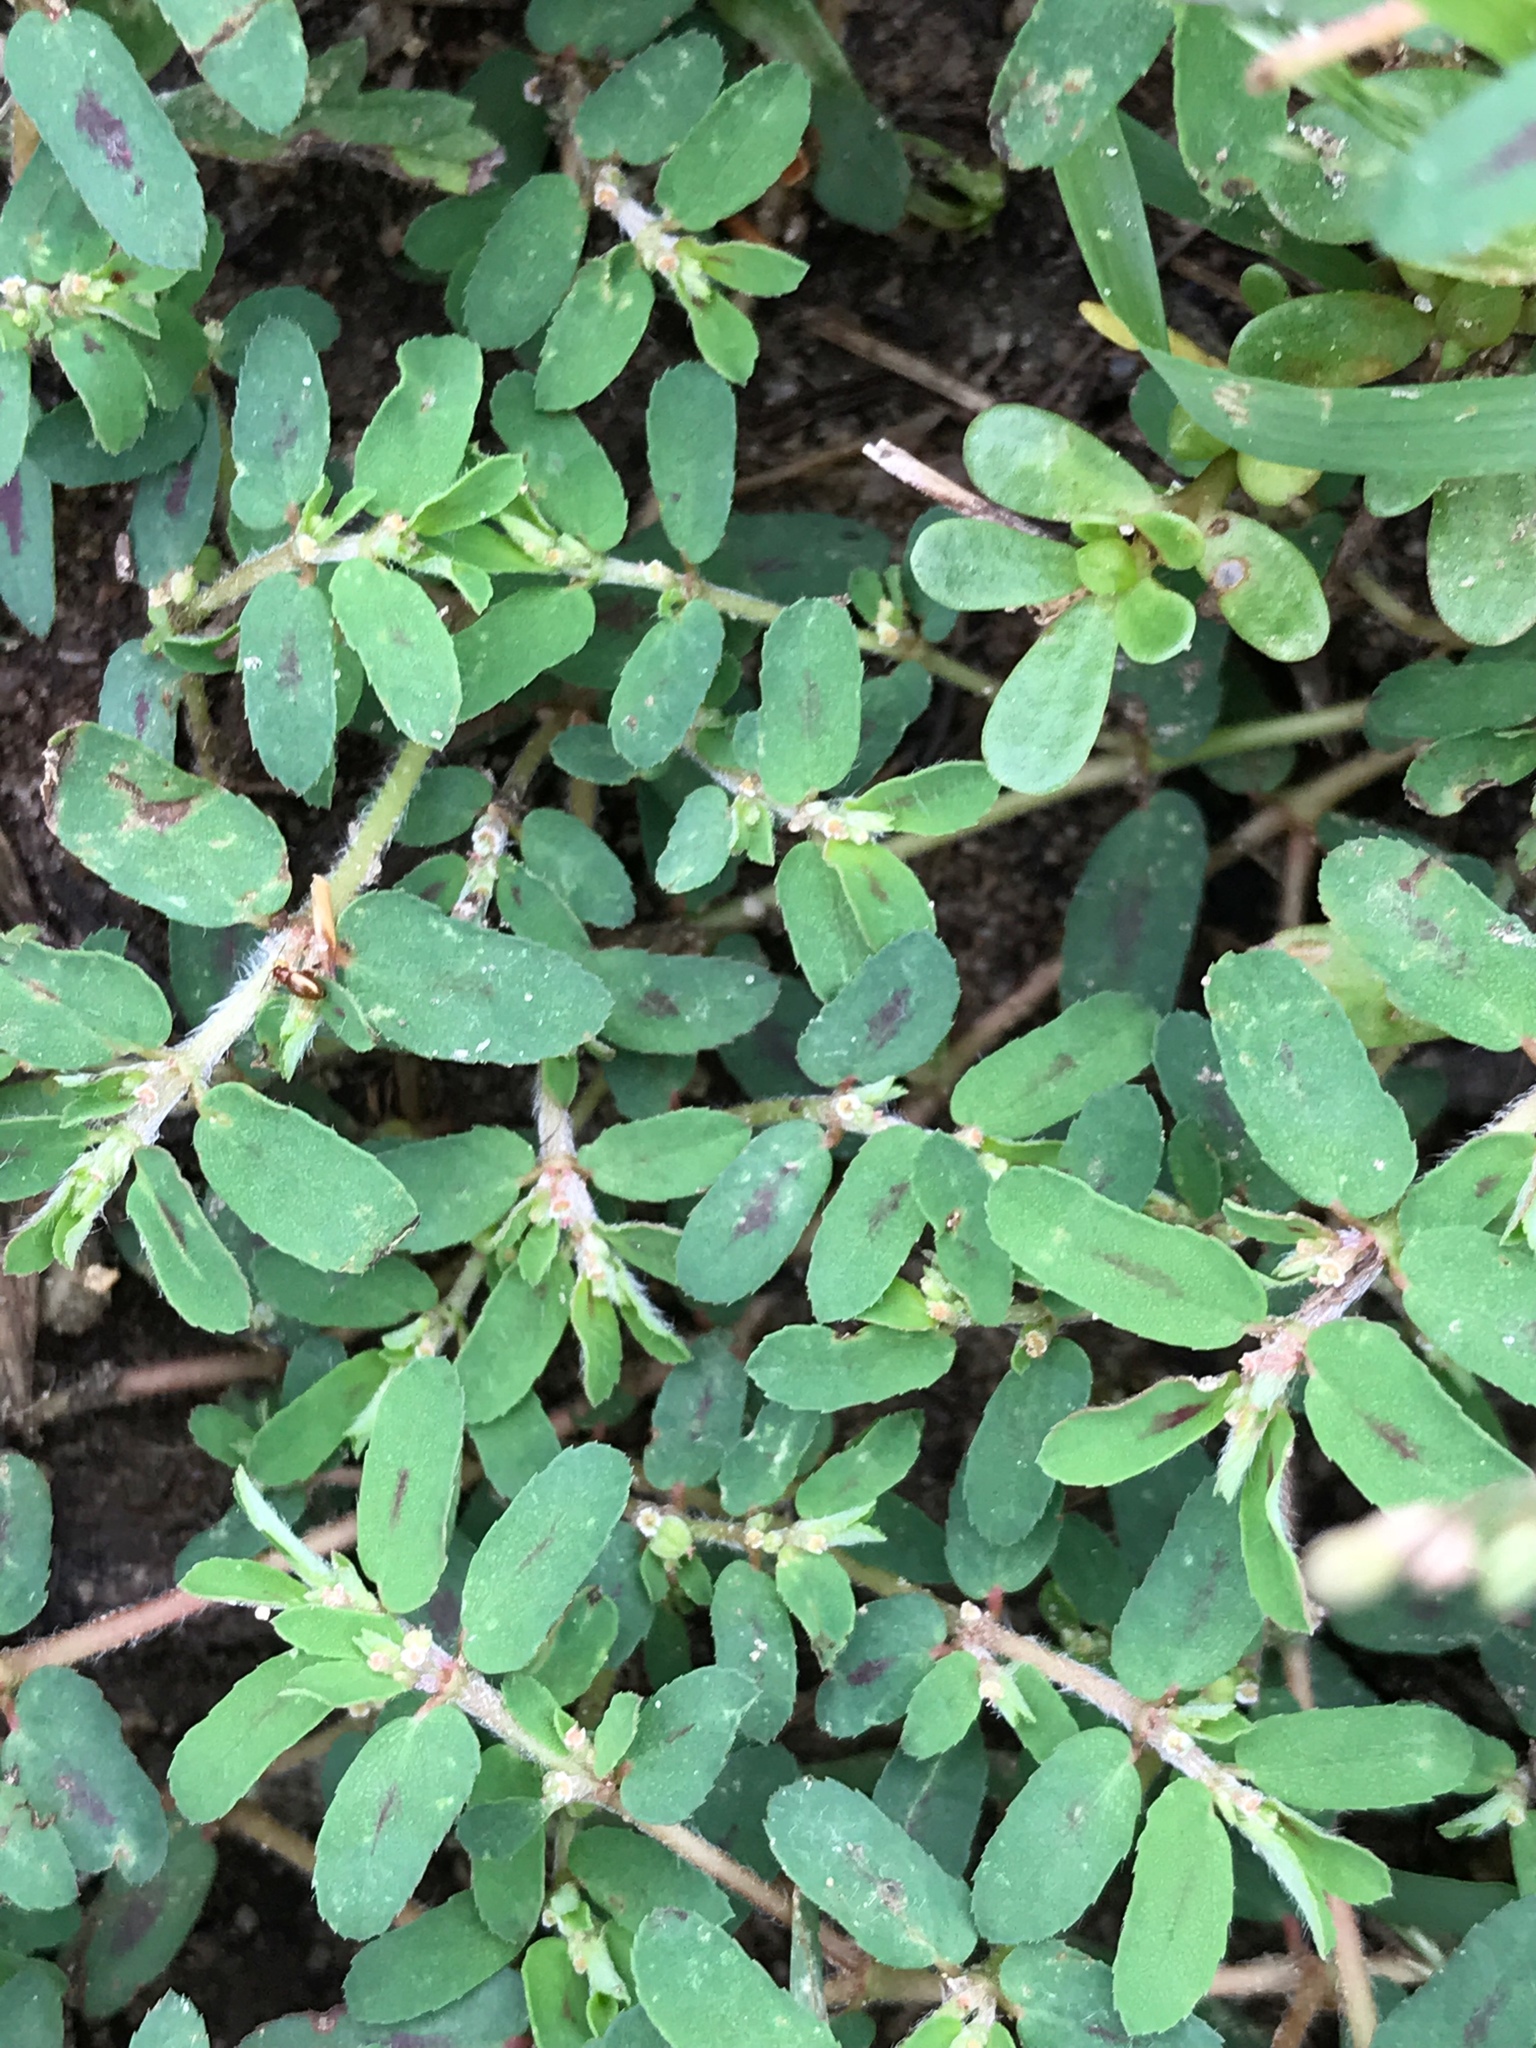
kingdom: Plantae
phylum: Tracheophyta
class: Magnoliopsida
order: Malpighiales
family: Euphorbiaceae
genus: Euphorbia
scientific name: Euphorbia maculata
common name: Spotted spurge
